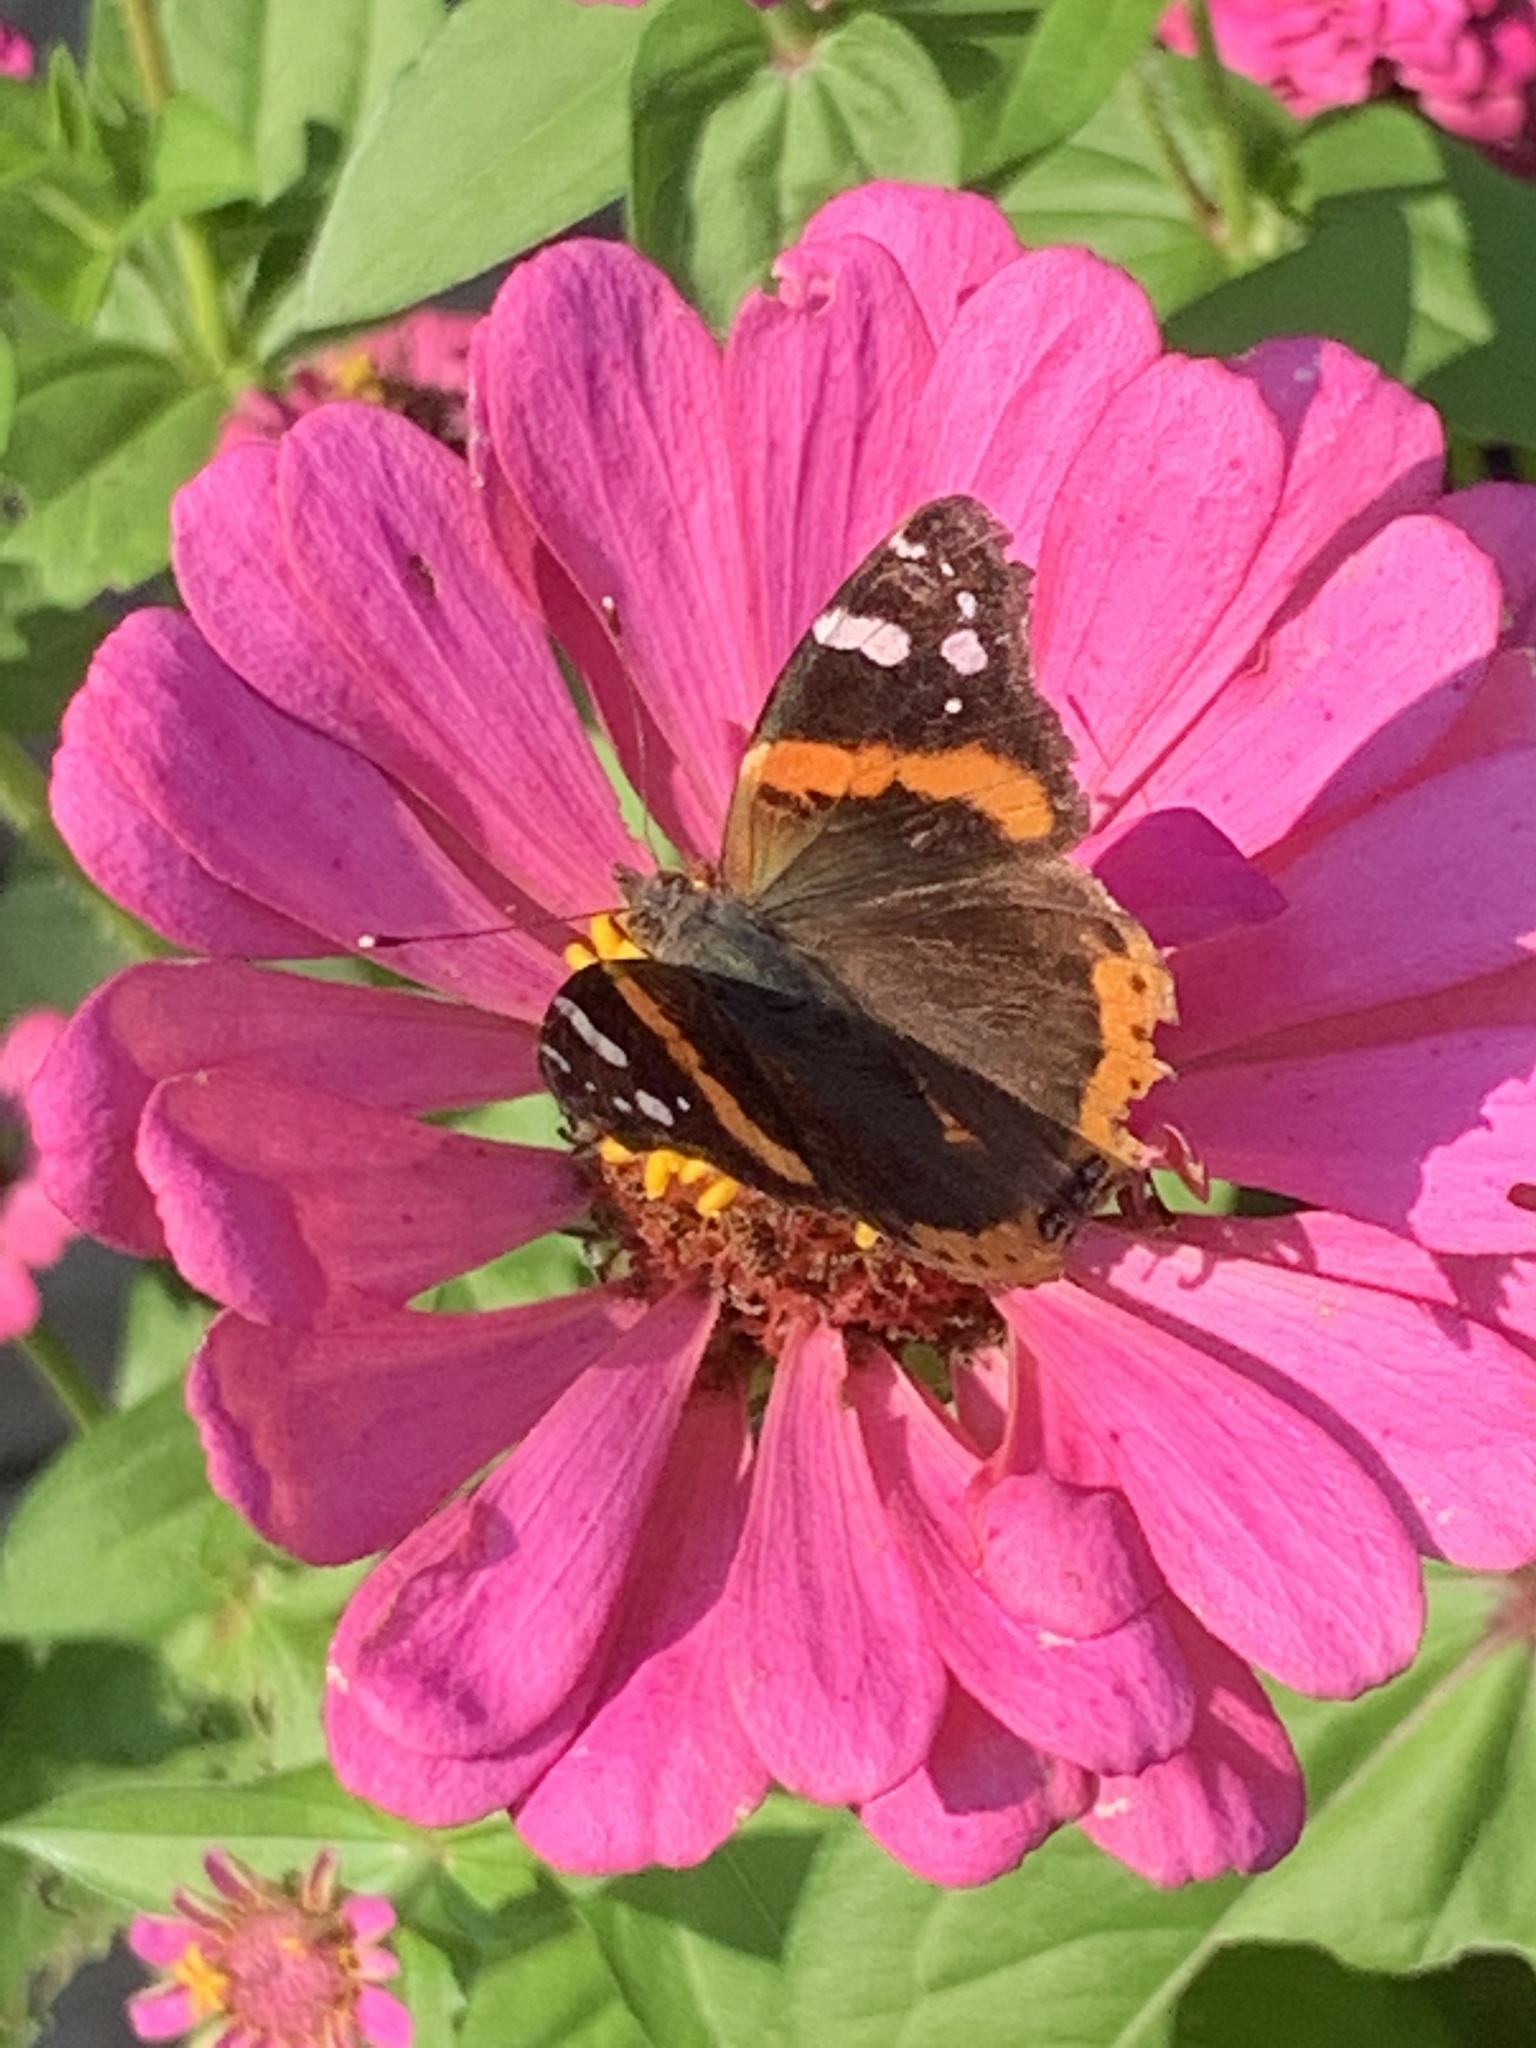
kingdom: Animalia
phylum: Arthropoda
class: Insecta
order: Lepidoptera
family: Nymphalidae
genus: Vanessa
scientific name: Vanessa atalanta
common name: Red admiral
